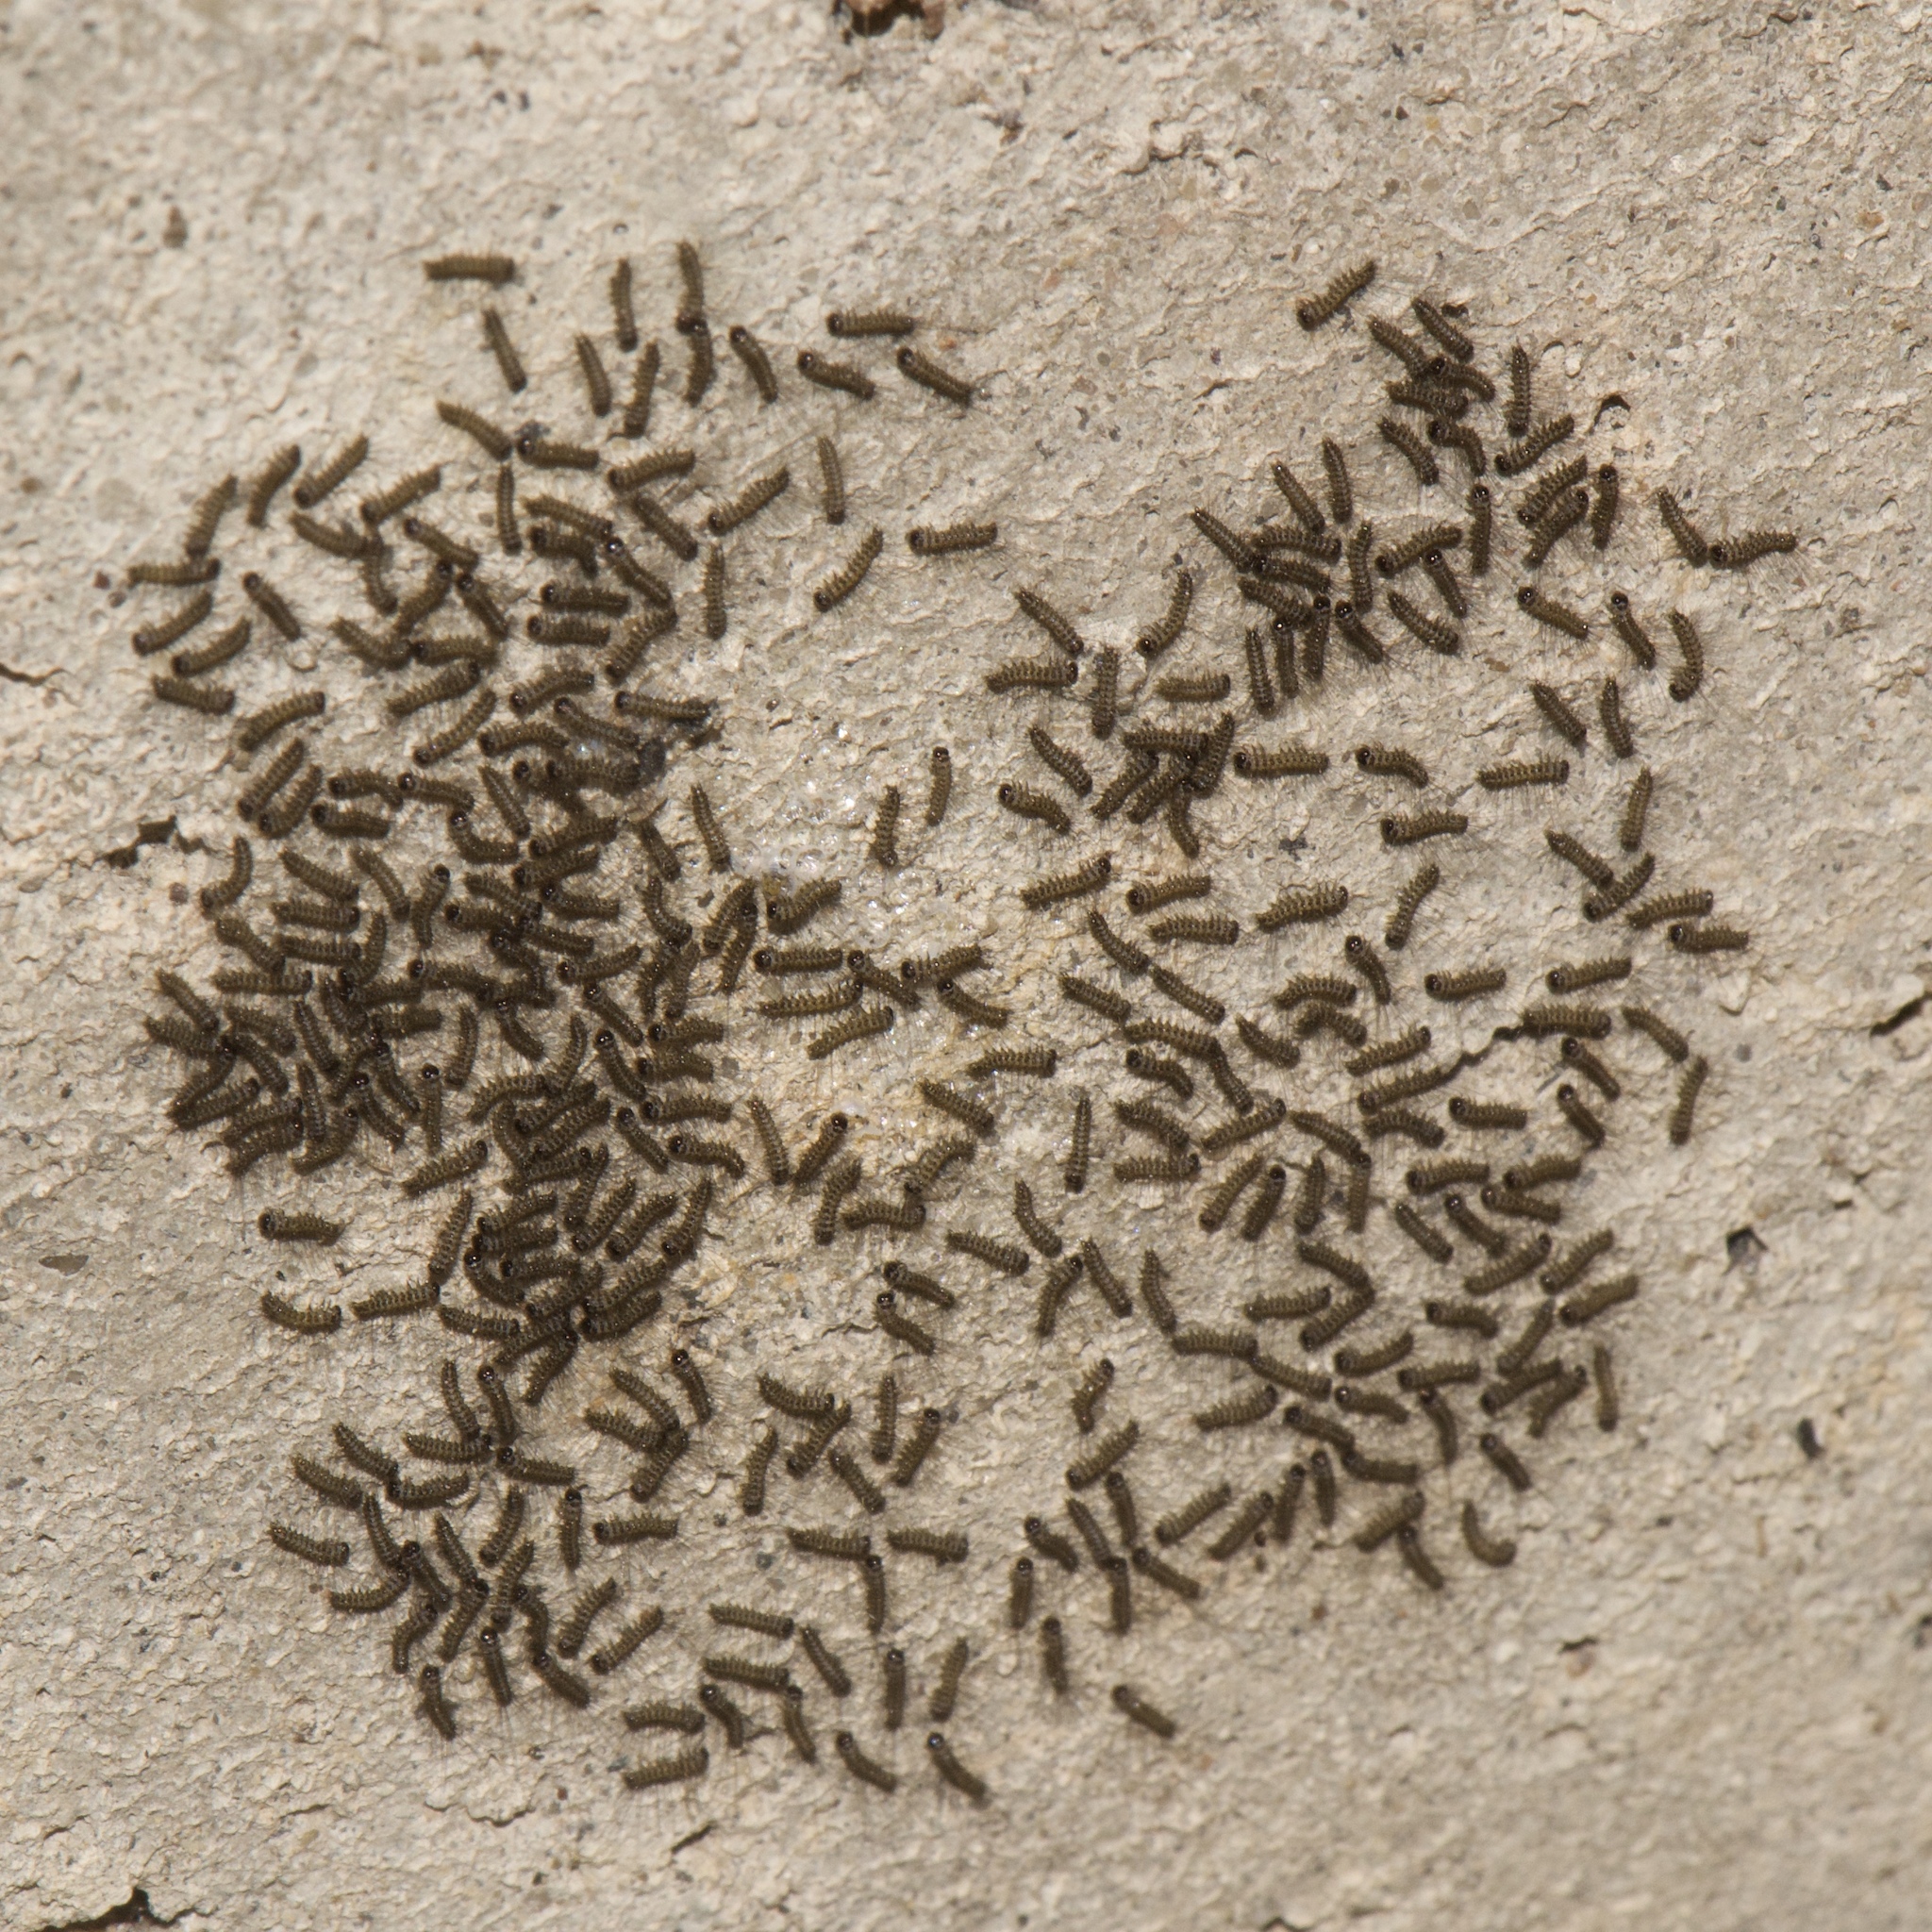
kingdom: Animalia
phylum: Arthropoda
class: Insecta
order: Lepidoptera
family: Erebidae
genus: Estigmene
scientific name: Estigmene acrea
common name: Salt marsh moth
